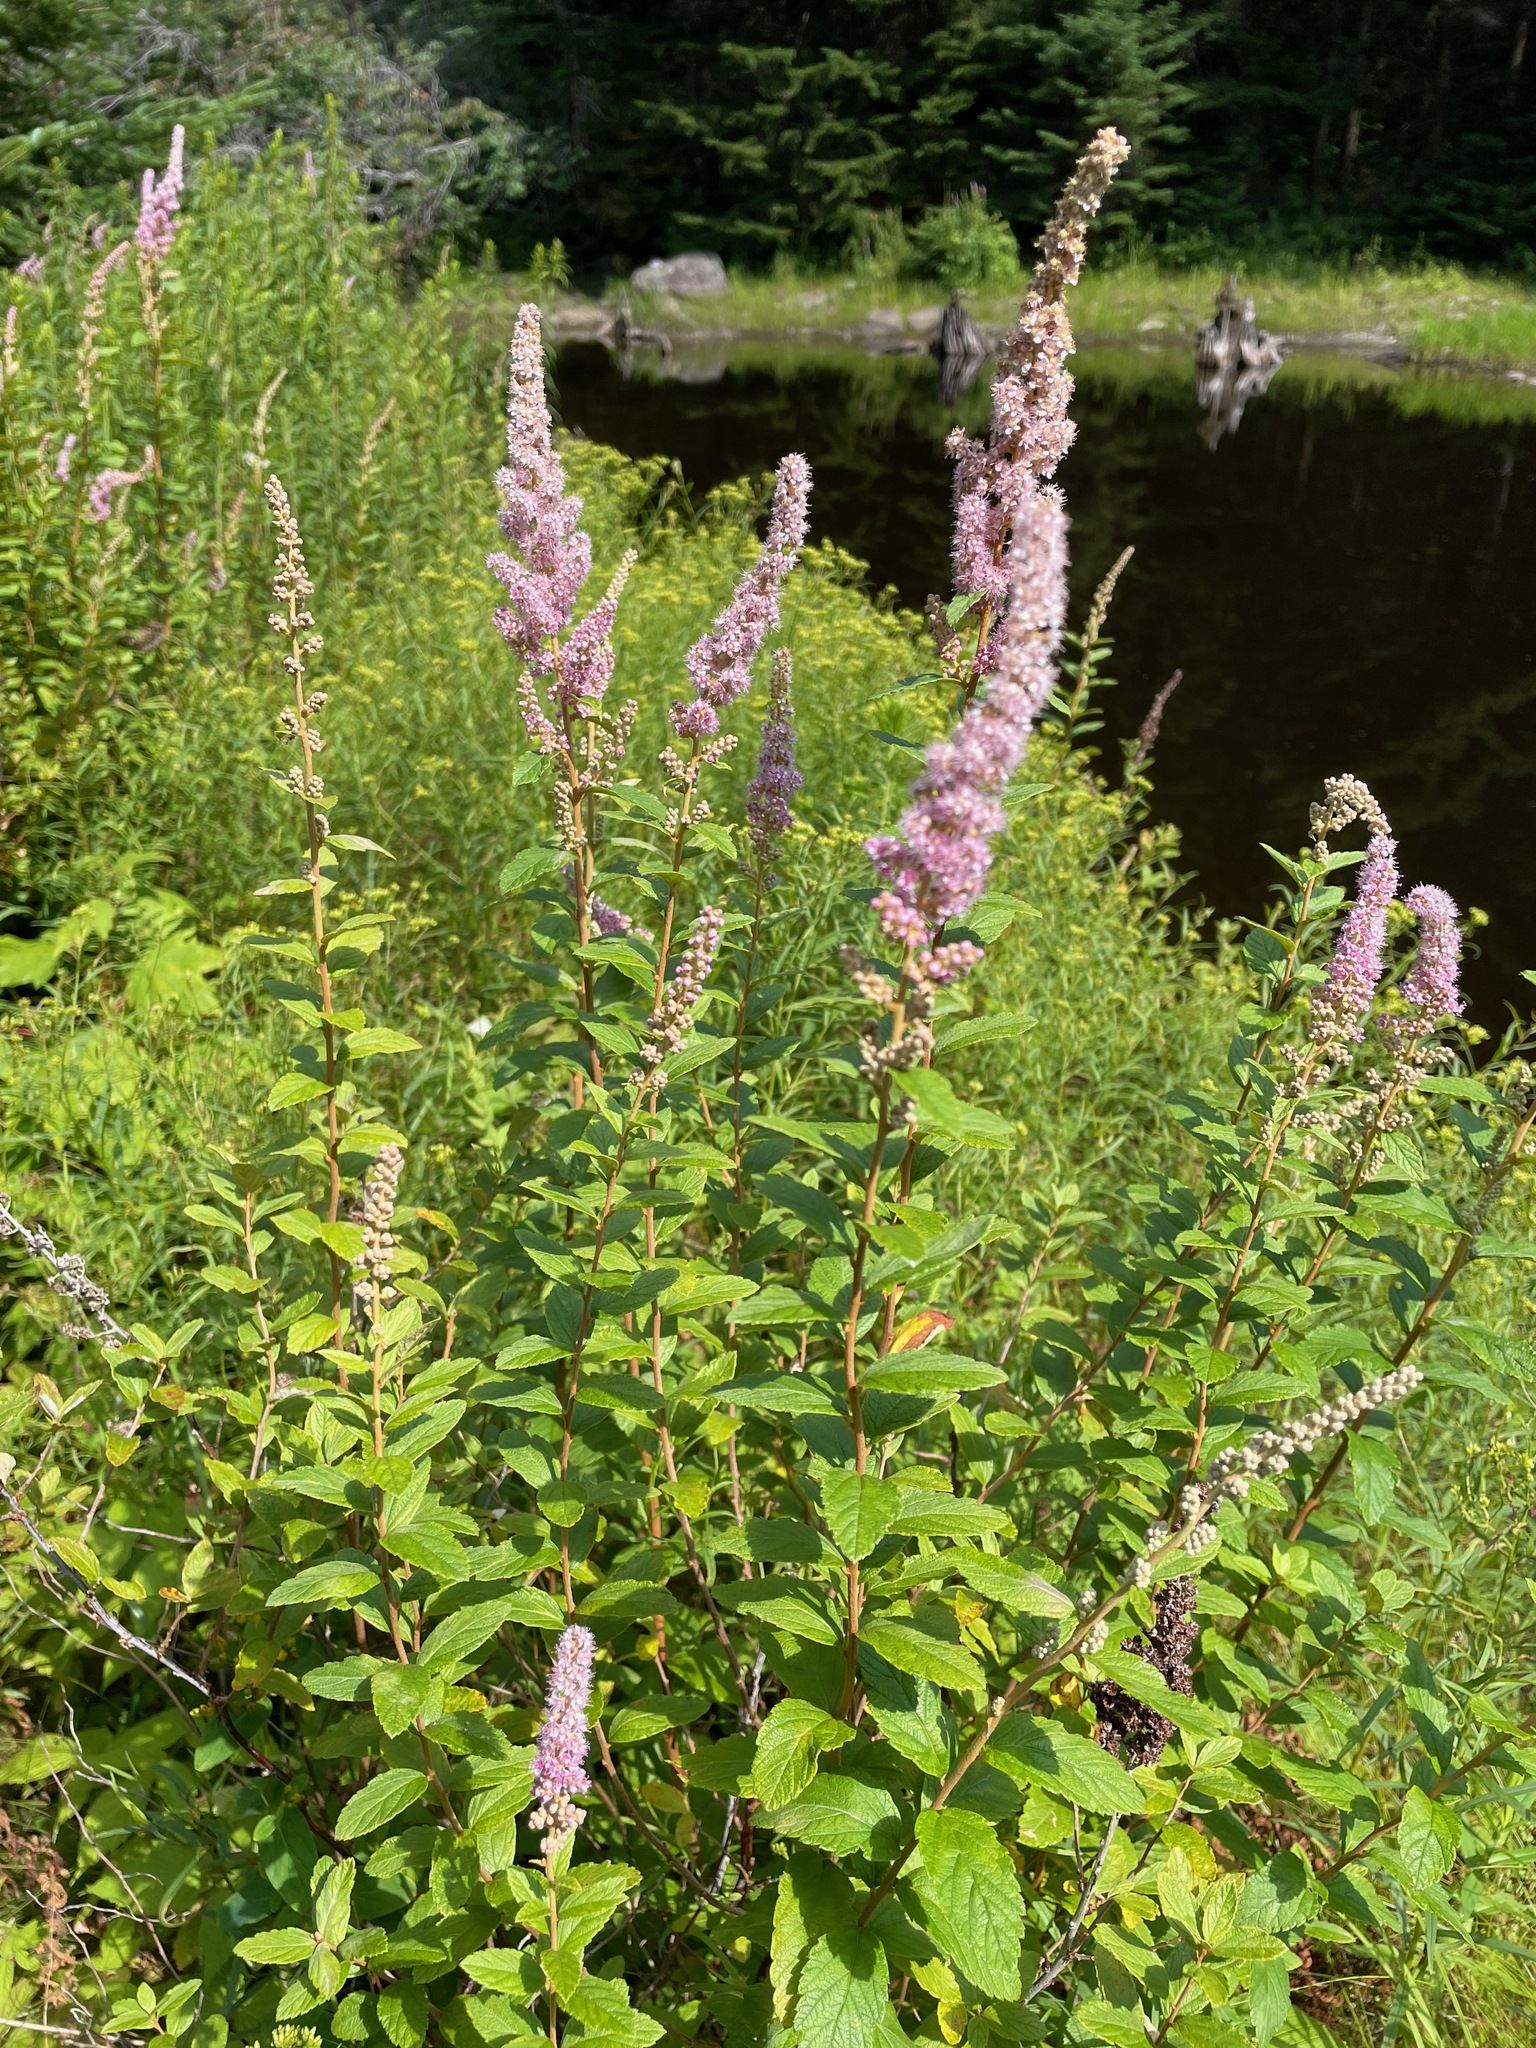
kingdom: Plantae
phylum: Tracheophyta
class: Magnoliopsida
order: Rosales
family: Rosaceae
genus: Spiraea
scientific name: Spiraea tomentosa
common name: Hardhack
